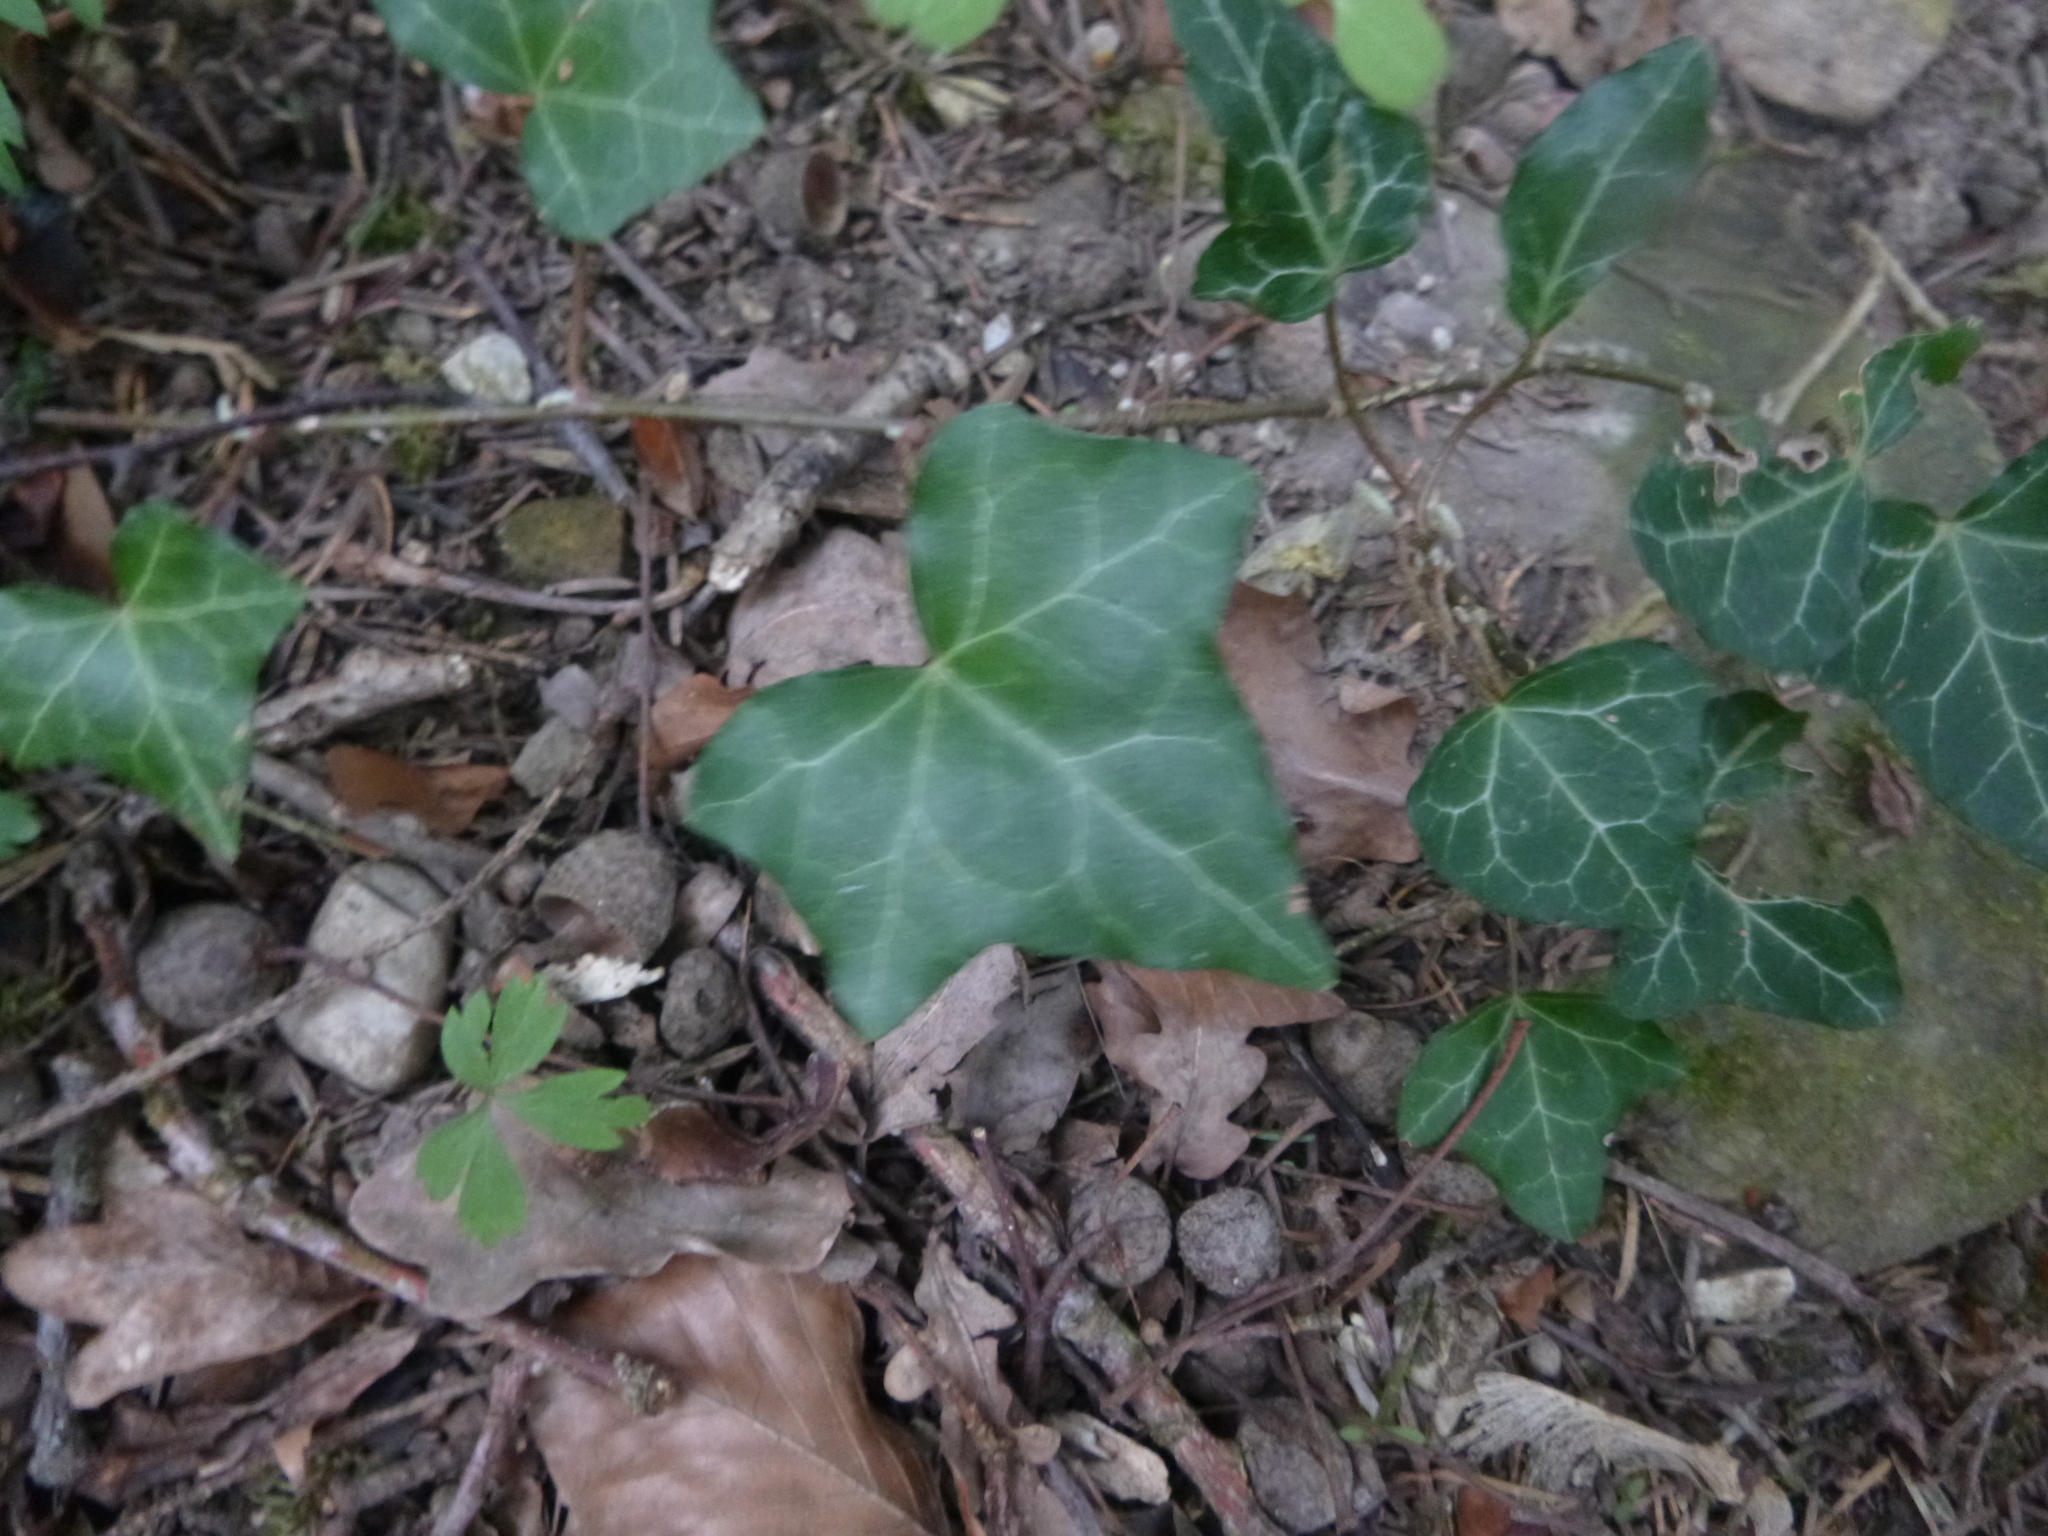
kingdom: Plantae
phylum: Tracheophyta
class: Magnoliopsida
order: Apiales
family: Araliaceae
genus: Hedera
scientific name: Hedera helix
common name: Ivy
